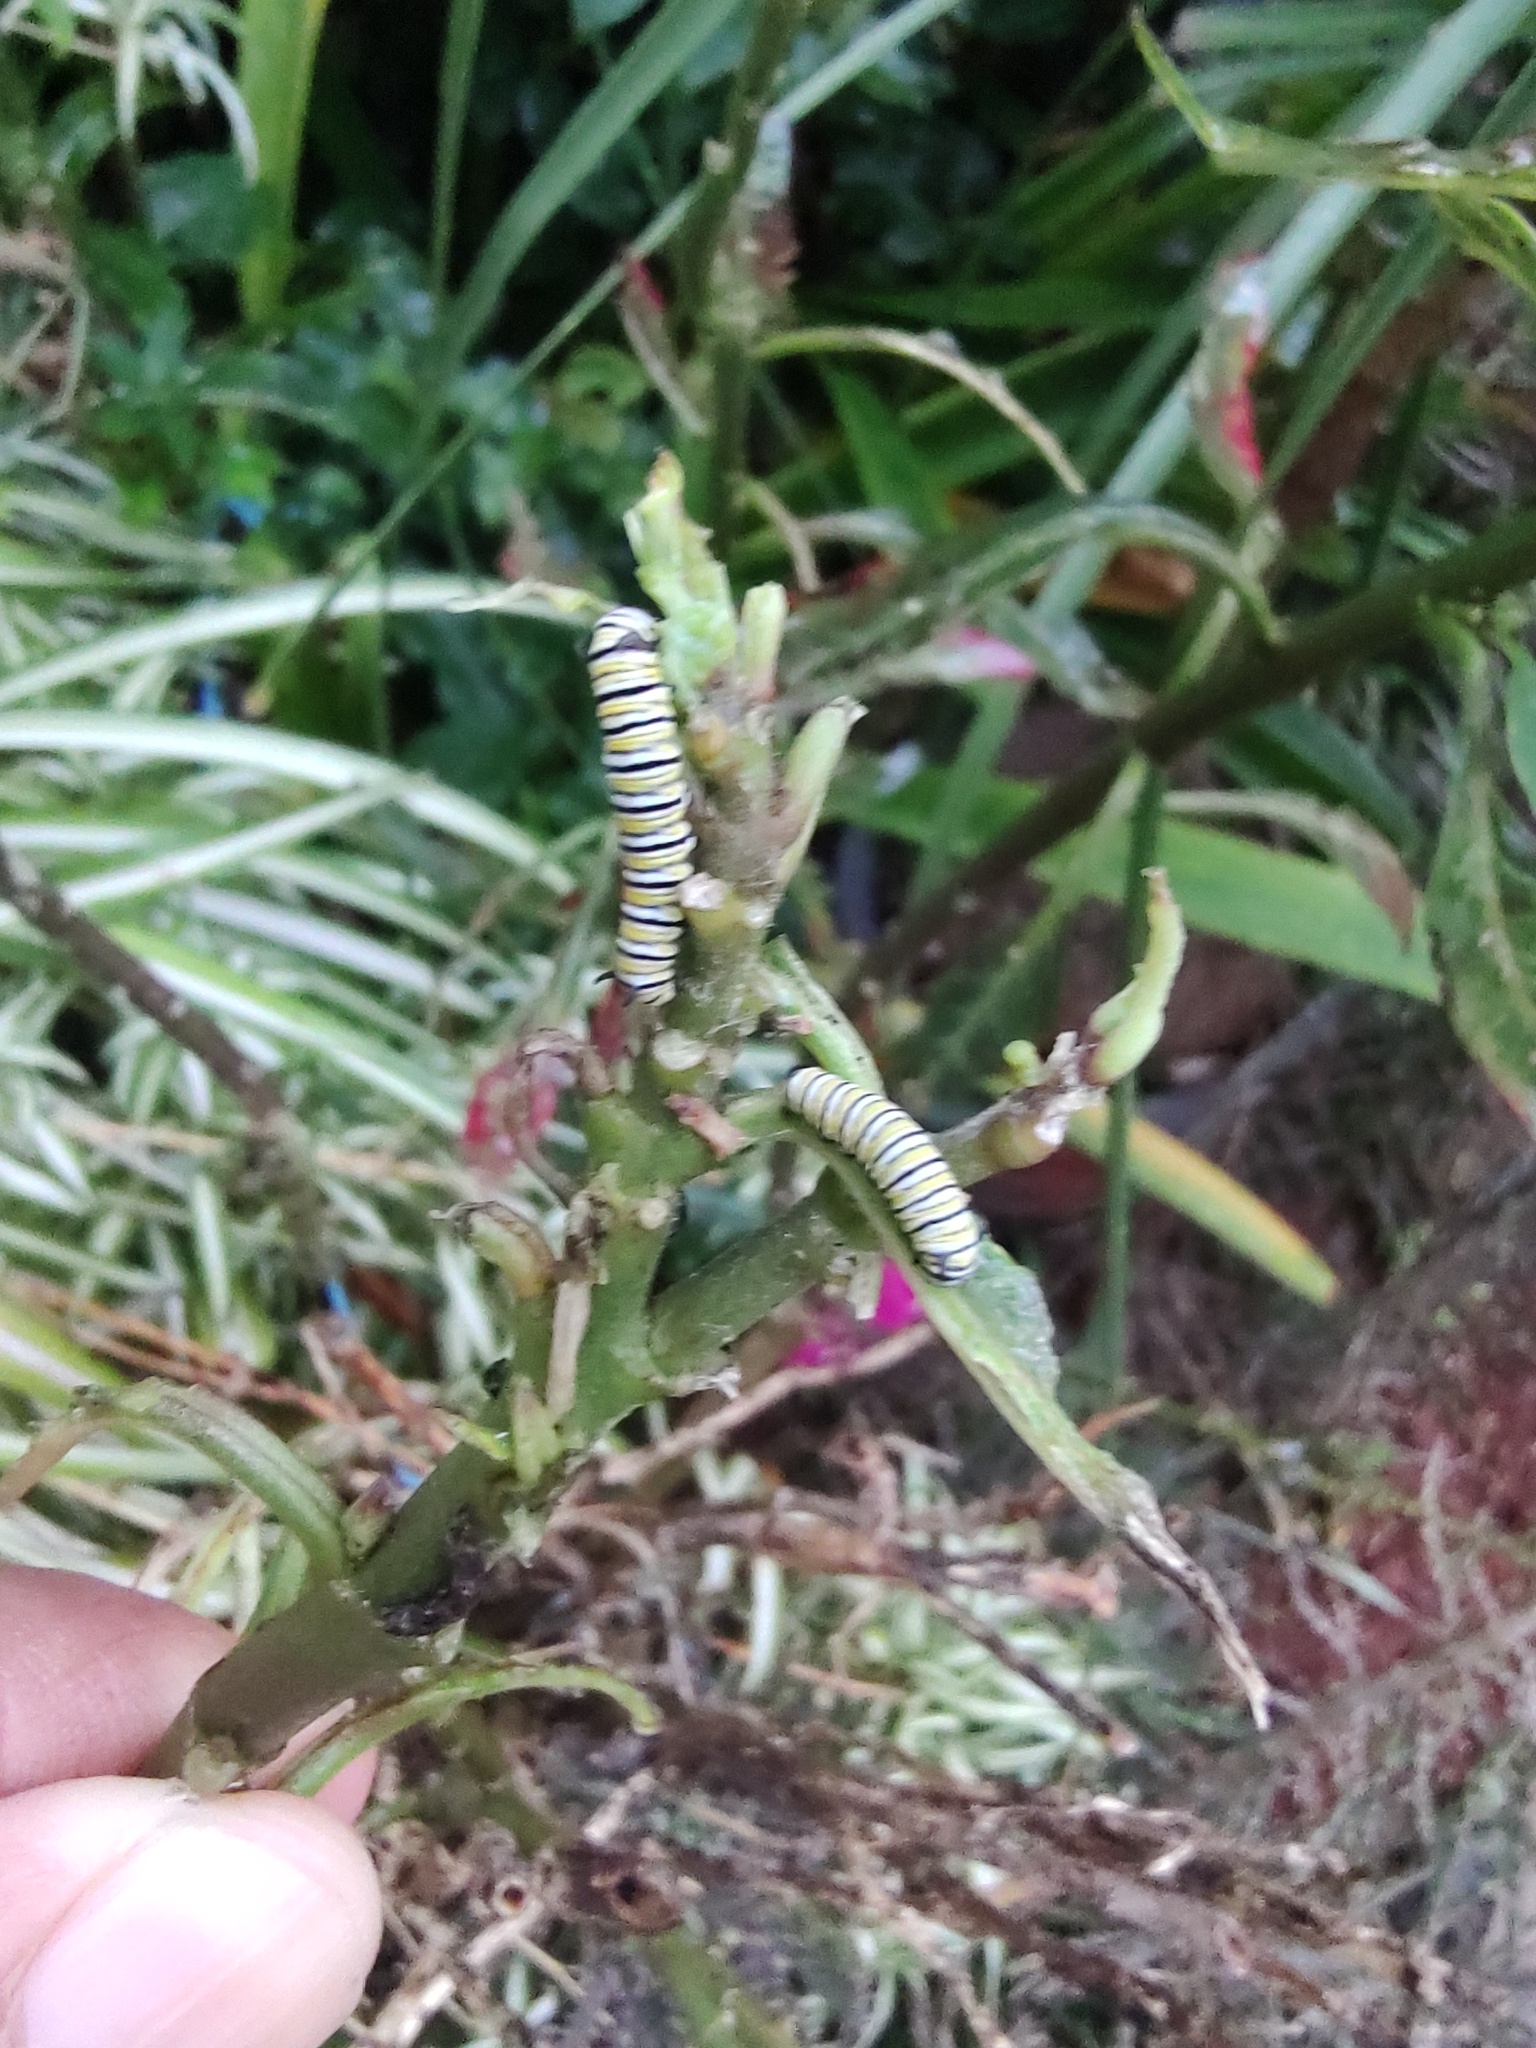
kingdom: Animalia
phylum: Arthropoda
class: Insecta
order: Lepidoptera
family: Nymphalidae
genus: Danaus
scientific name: Danaus plexippus
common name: Monarch
